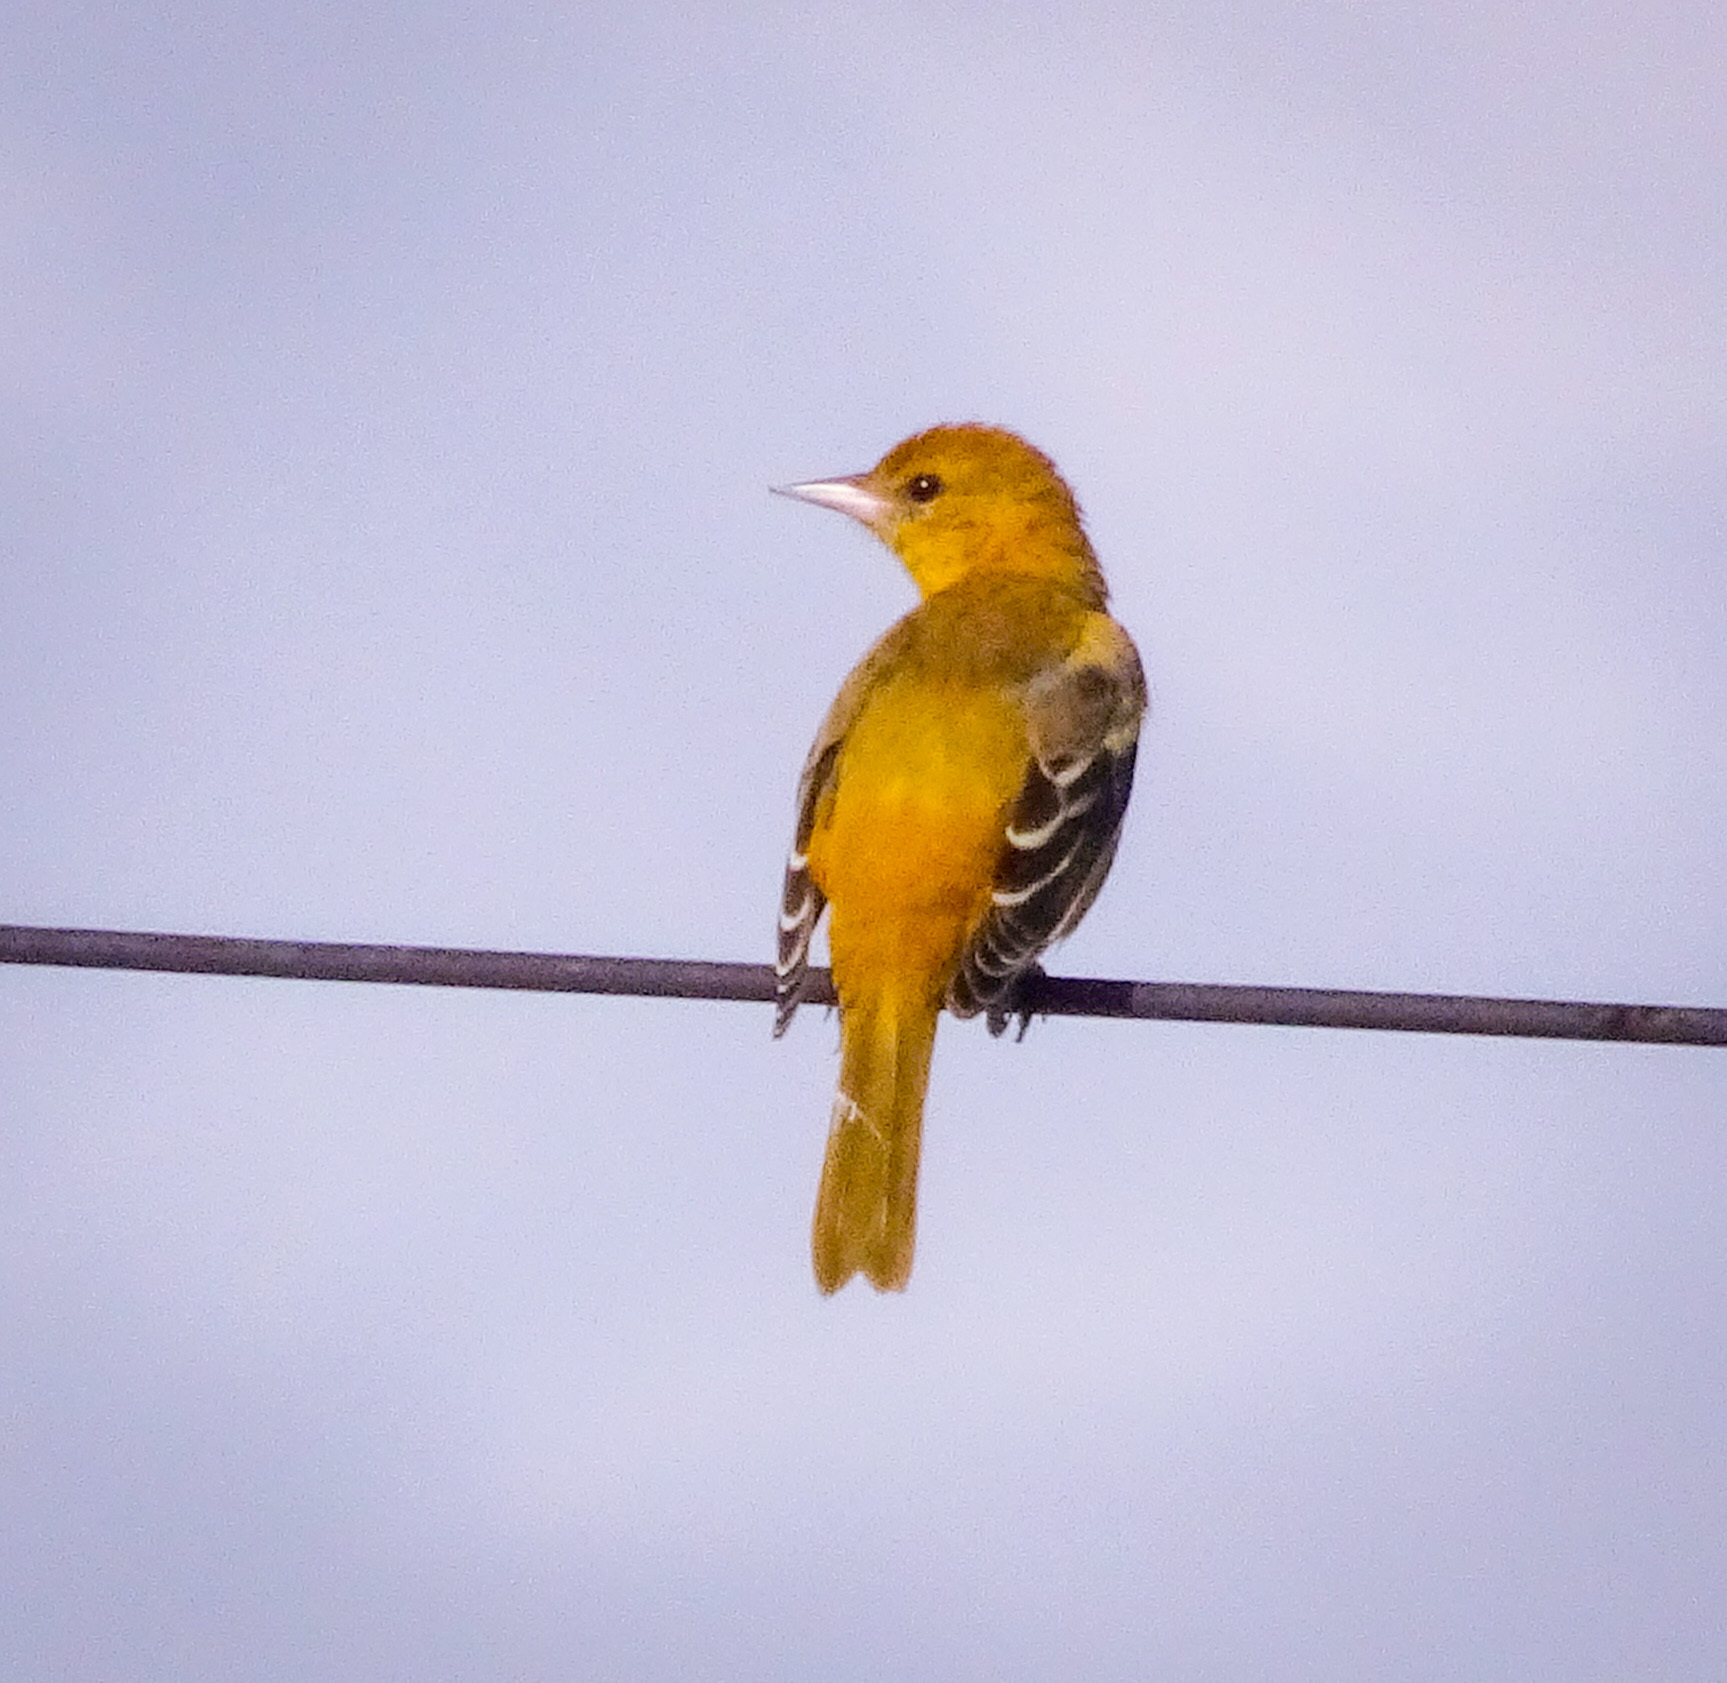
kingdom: Animalia
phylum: Chordata
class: Aves
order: Passeriformes
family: Icteridae
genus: Icterus
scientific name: Icterus galbula
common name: Baltimore oriole
